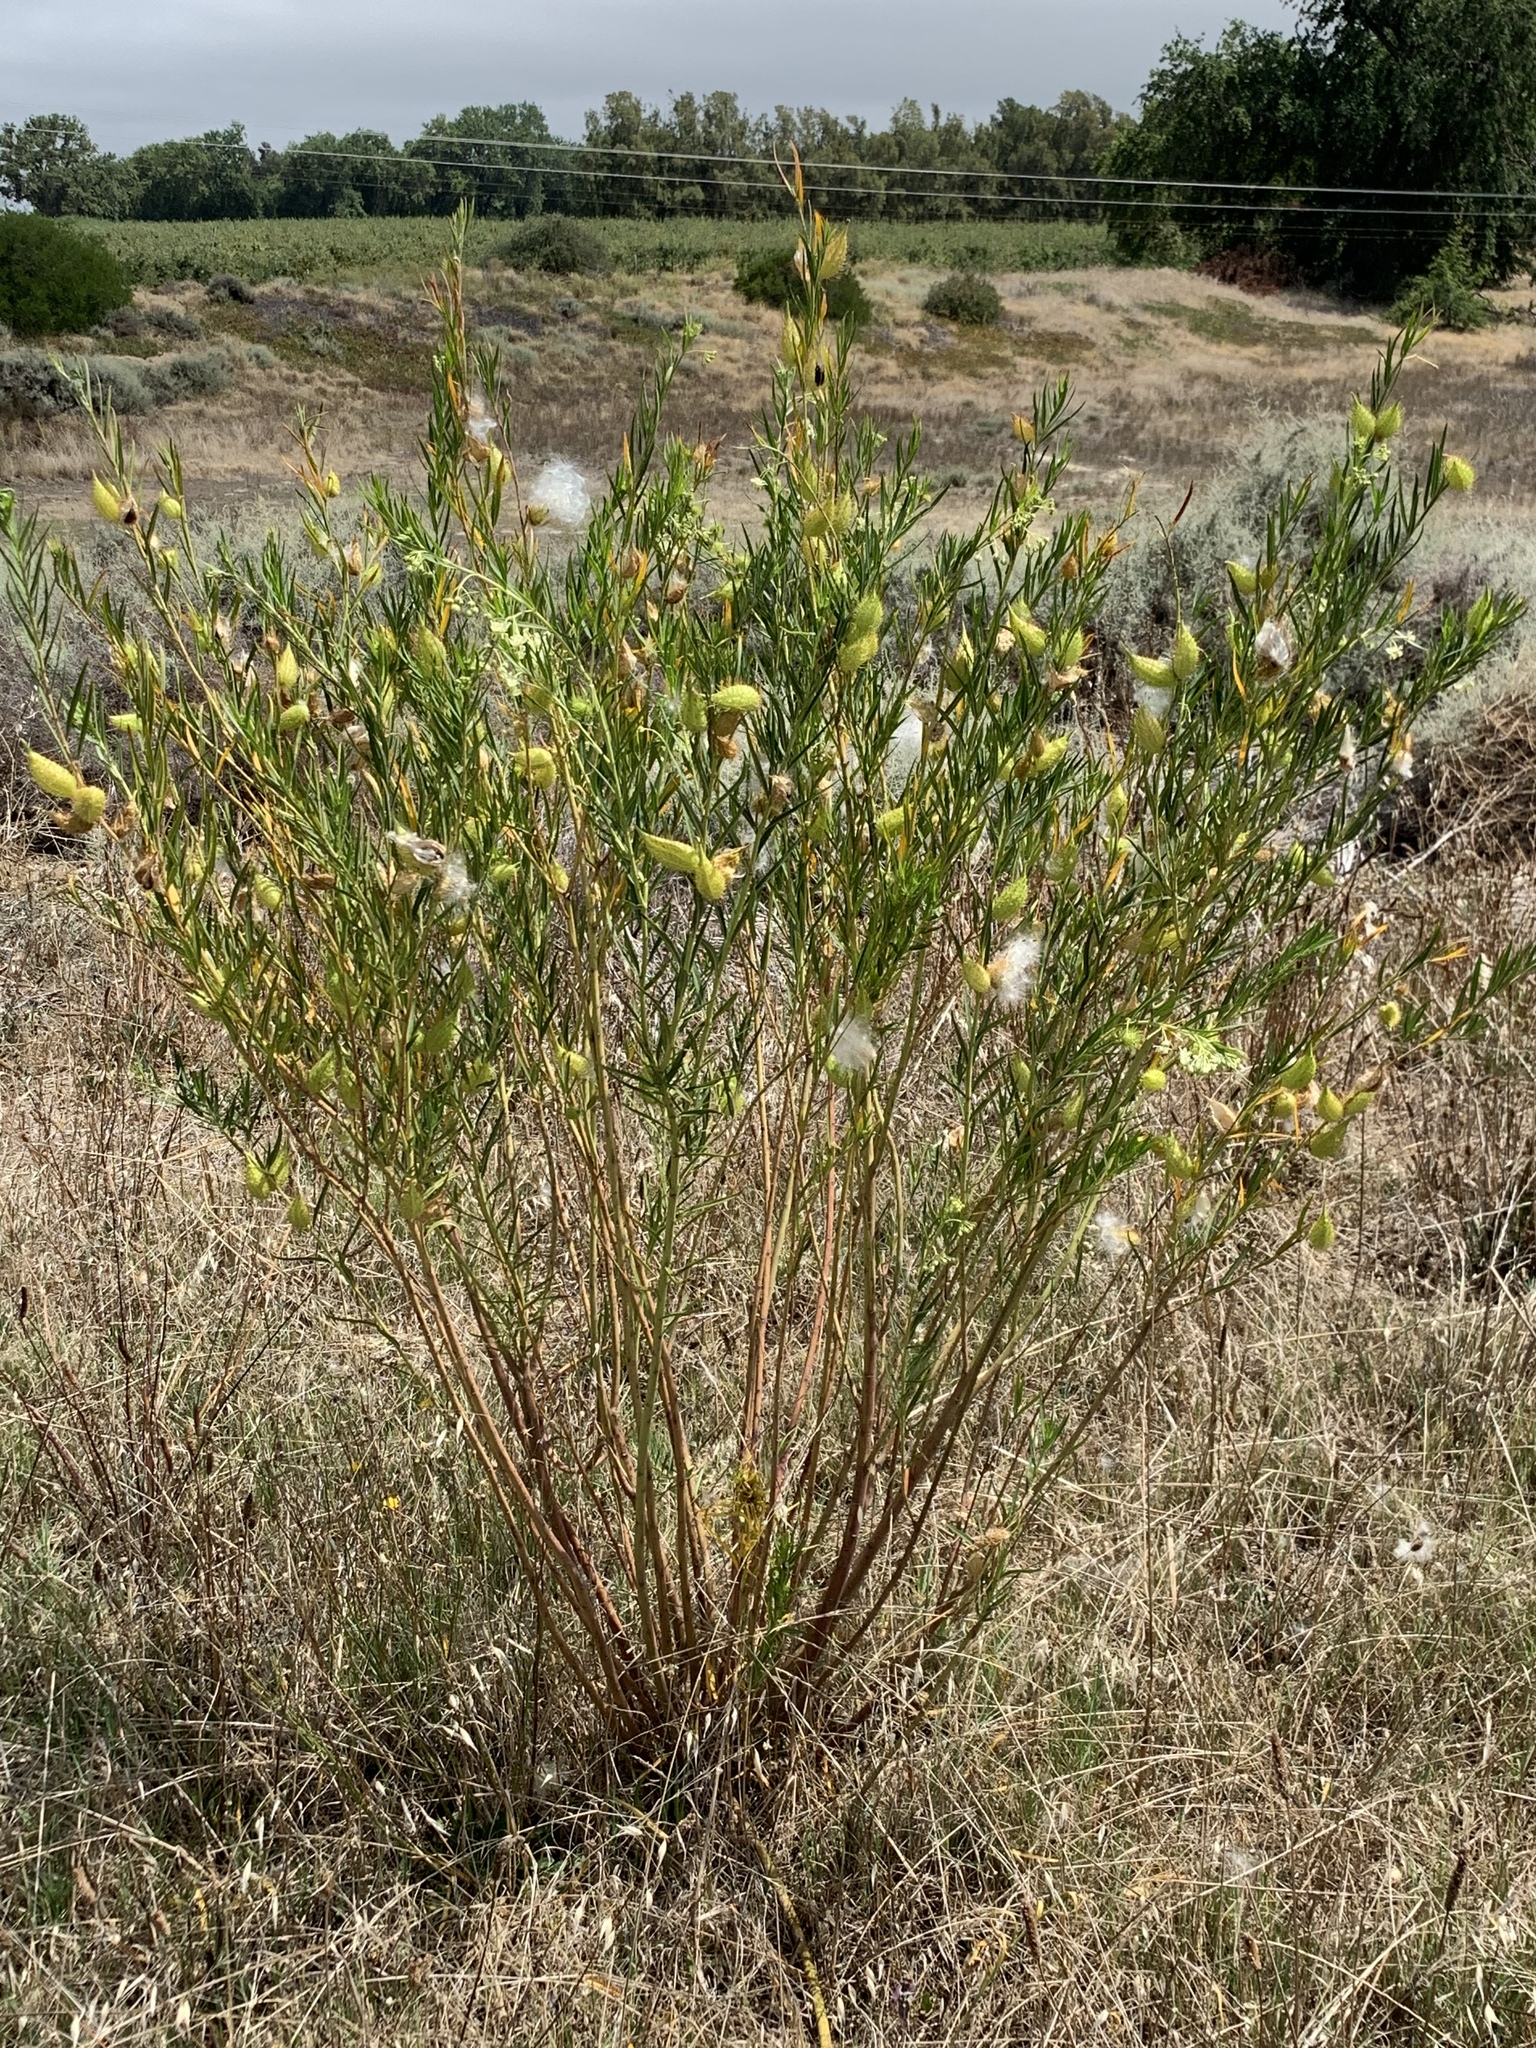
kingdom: Plantae
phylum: Tracheophyta
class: Magnoliopsida
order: Gentianales
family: Apocynaceae
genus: Gomphocarpus
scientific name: Gomphocarpus fruticosus
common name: Milkweed
